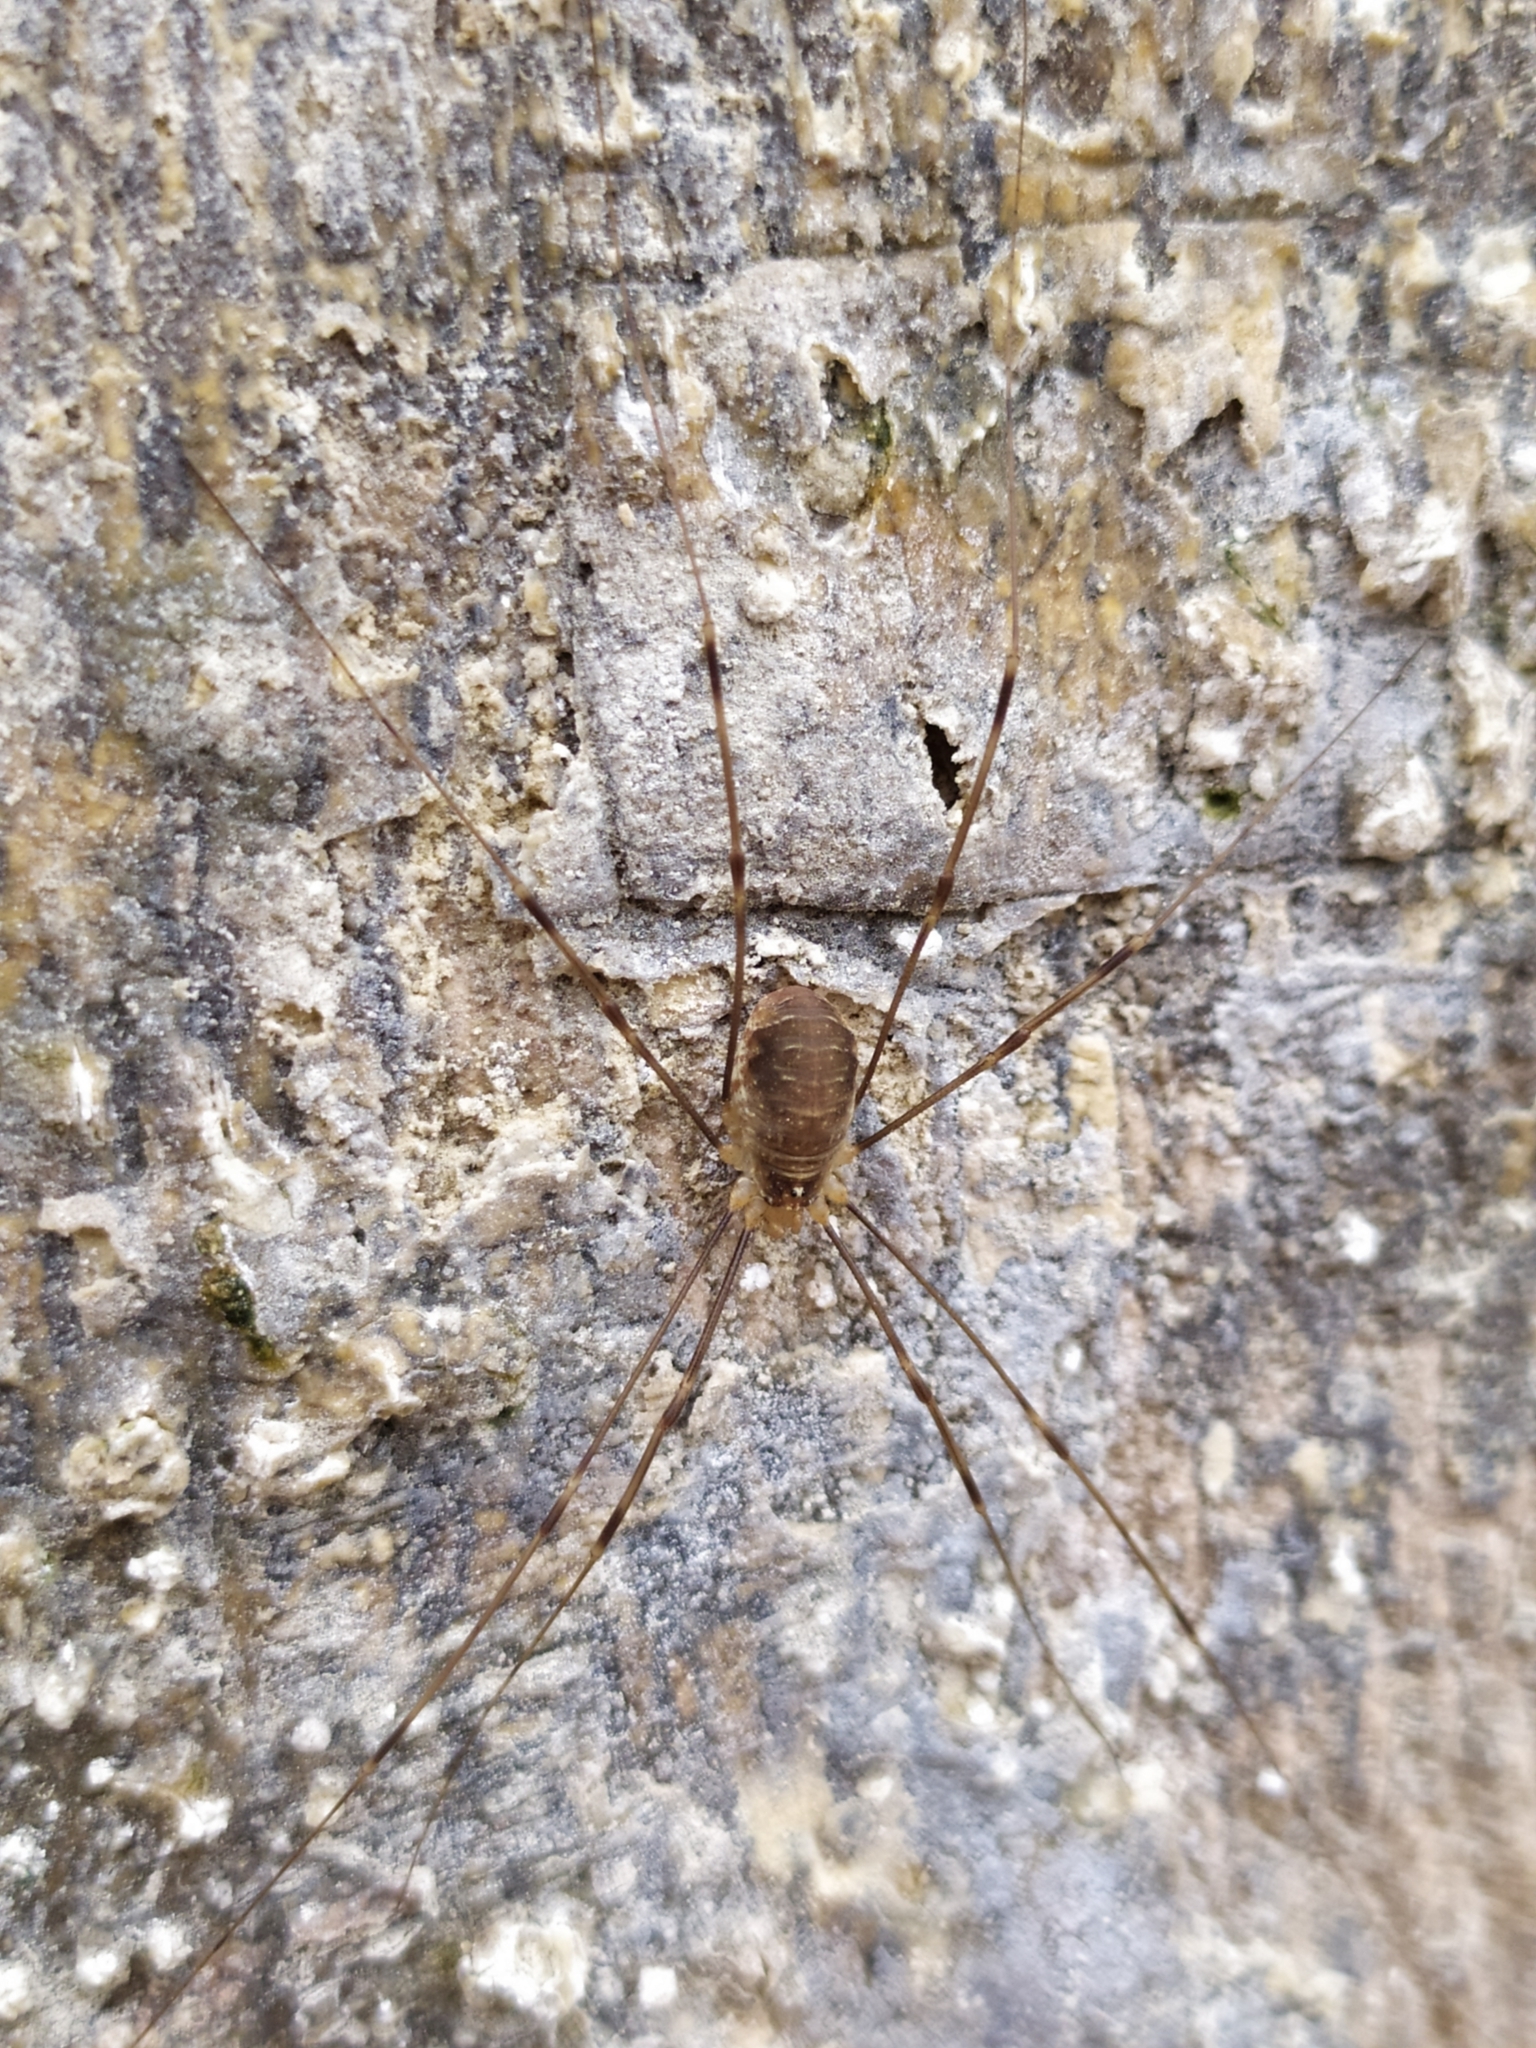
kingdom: Animalia
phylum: Arthropoda
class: Arachnida
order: Opiliones
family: Phalangiidae
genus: Opilio
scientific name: Opilio canestrinii
